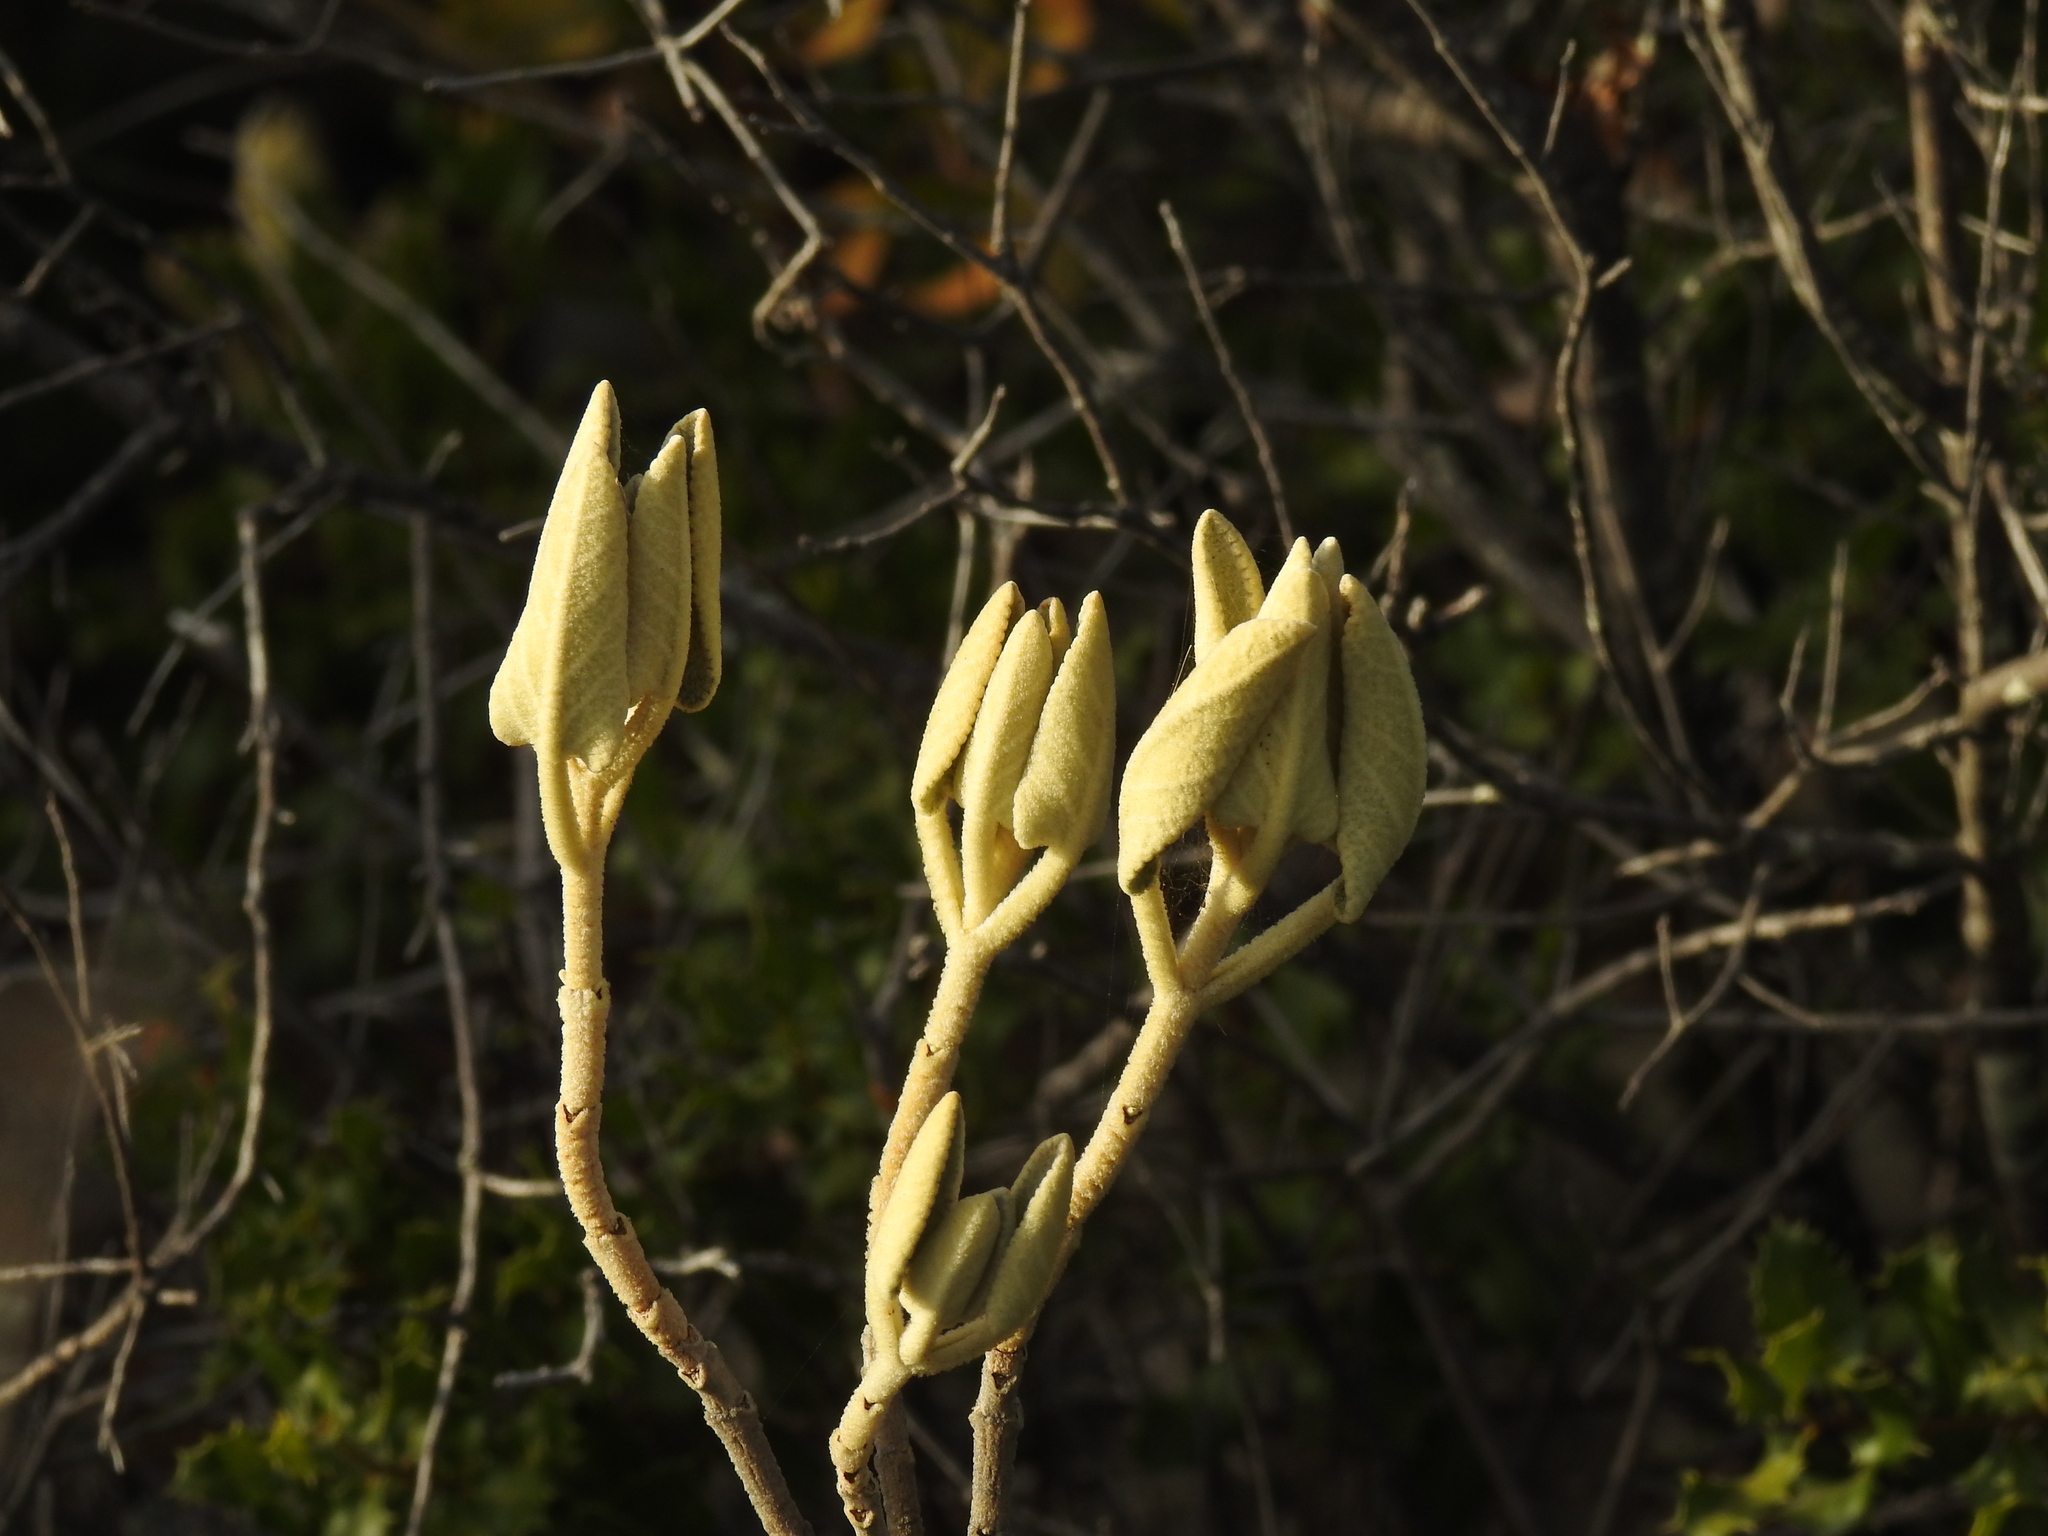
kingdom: Plantae
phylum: Tracheophyta
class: Magnoliopsida
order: Lamiales
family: Lamiaceae
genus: Phlomis
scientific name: Phlomis purpurea
